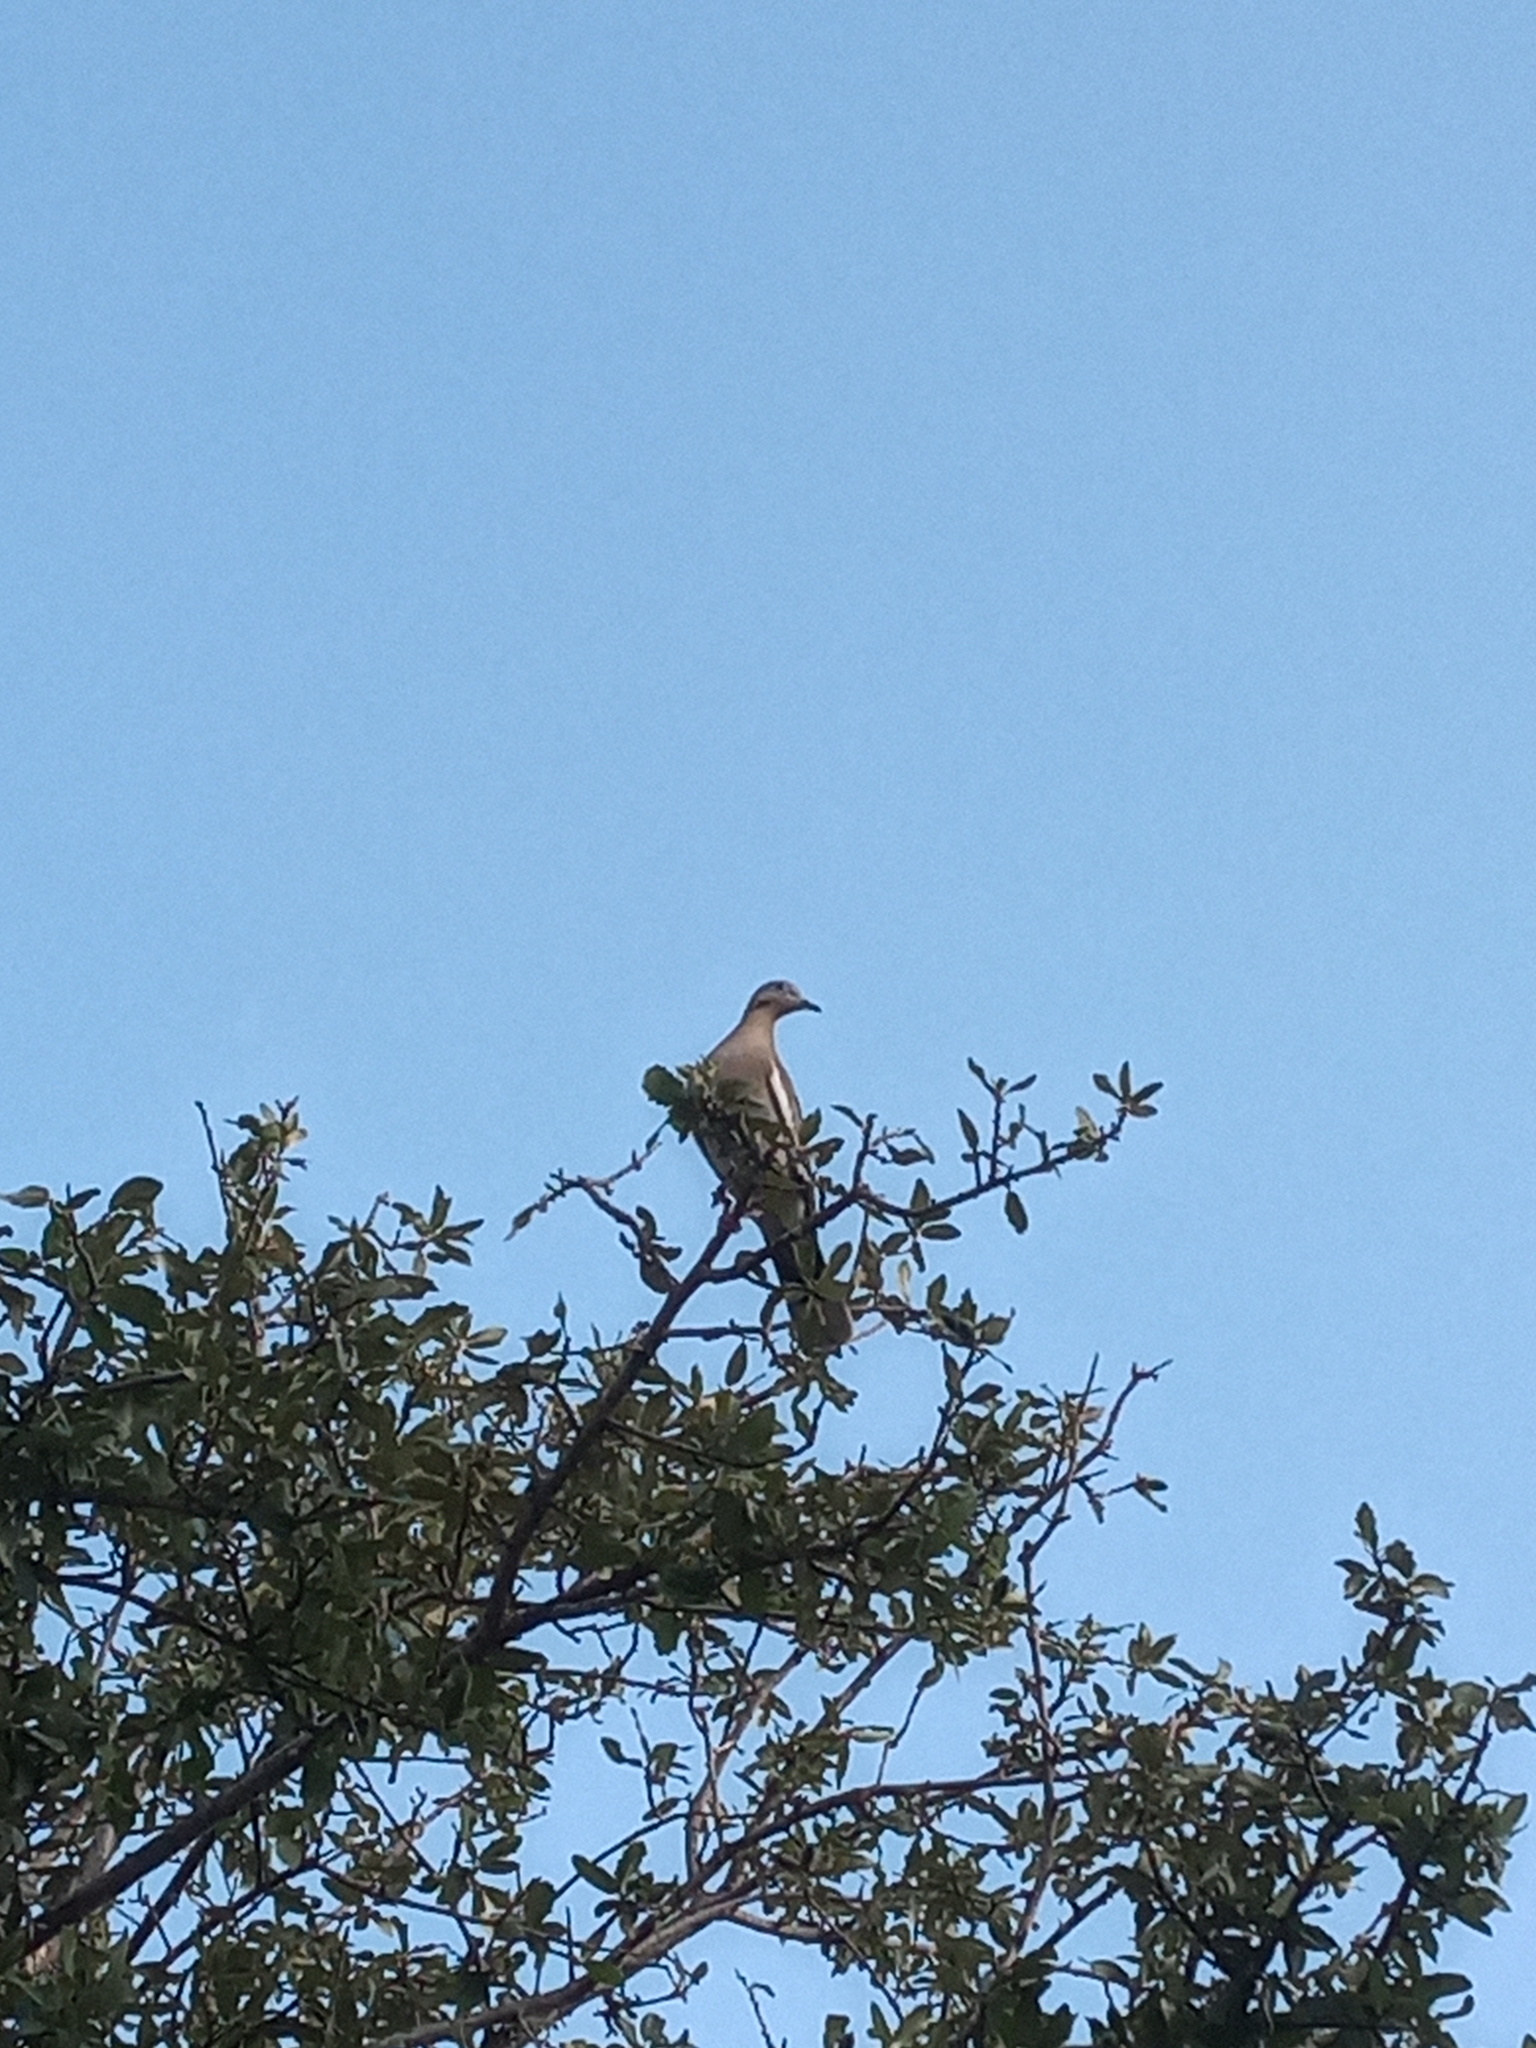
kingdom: Animalia
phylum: Chordata
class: Aves
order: Columbiformes
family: Columbidae
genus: Zenaida
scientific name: Zenaida asiatica
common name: White-winged dove
